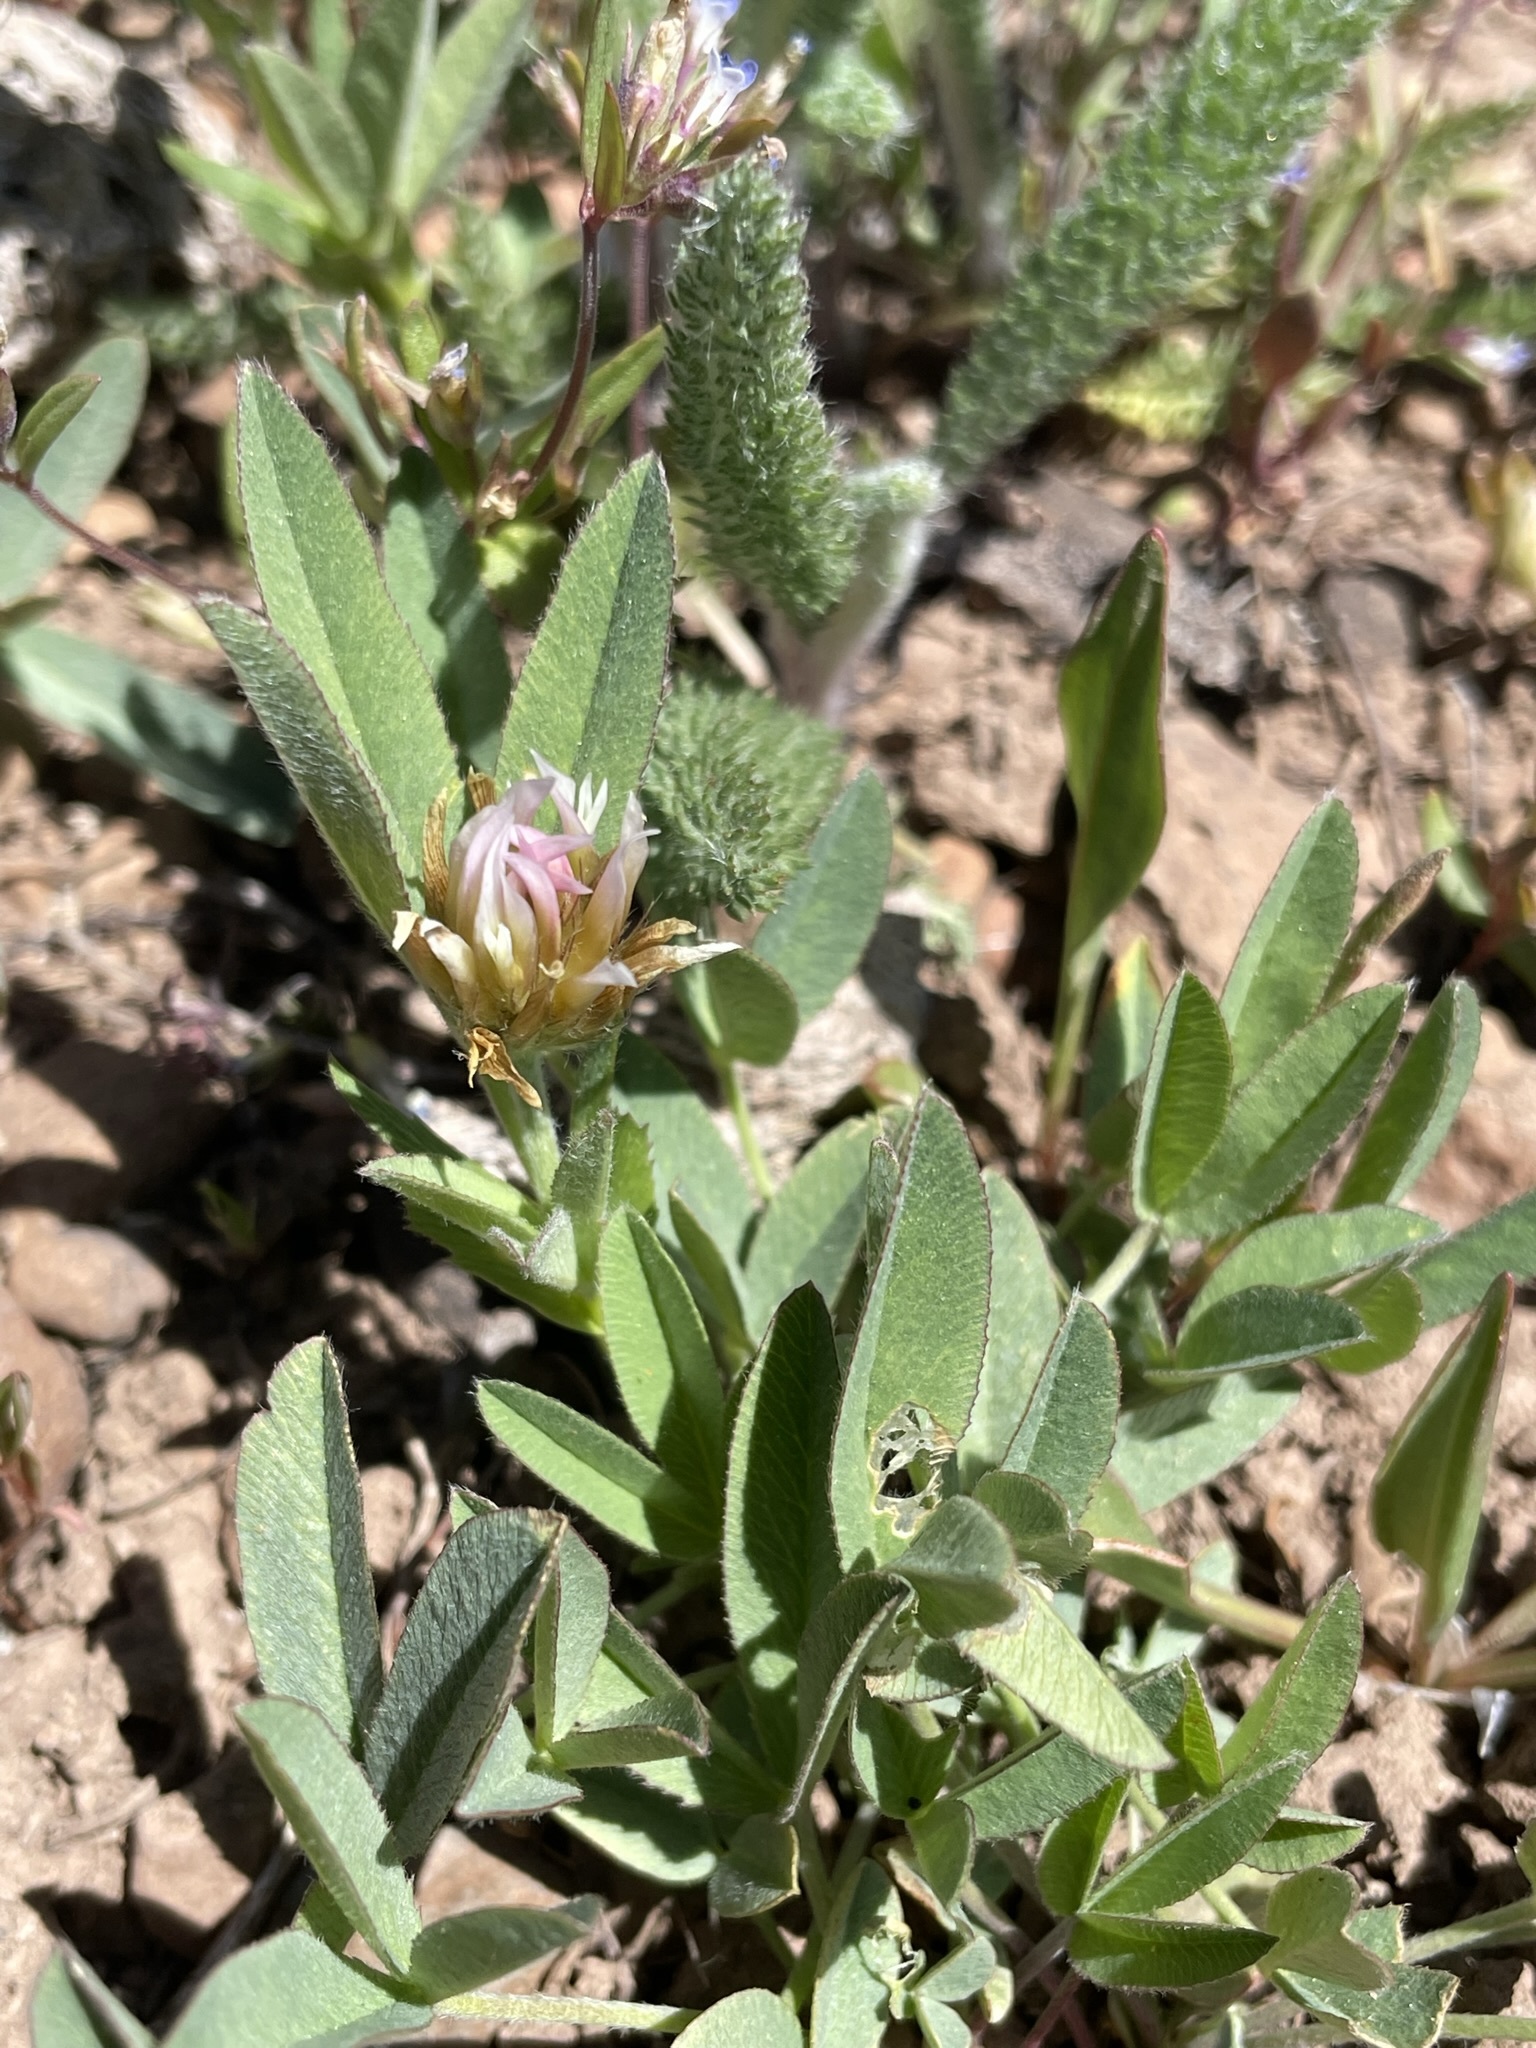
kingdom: Plantae
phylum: Tracheophyta
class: Magnoliopsida
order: Fabales
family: Fabaceae
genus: Trifolium
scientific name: Trifolium longipes
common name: Long-stalk clover
